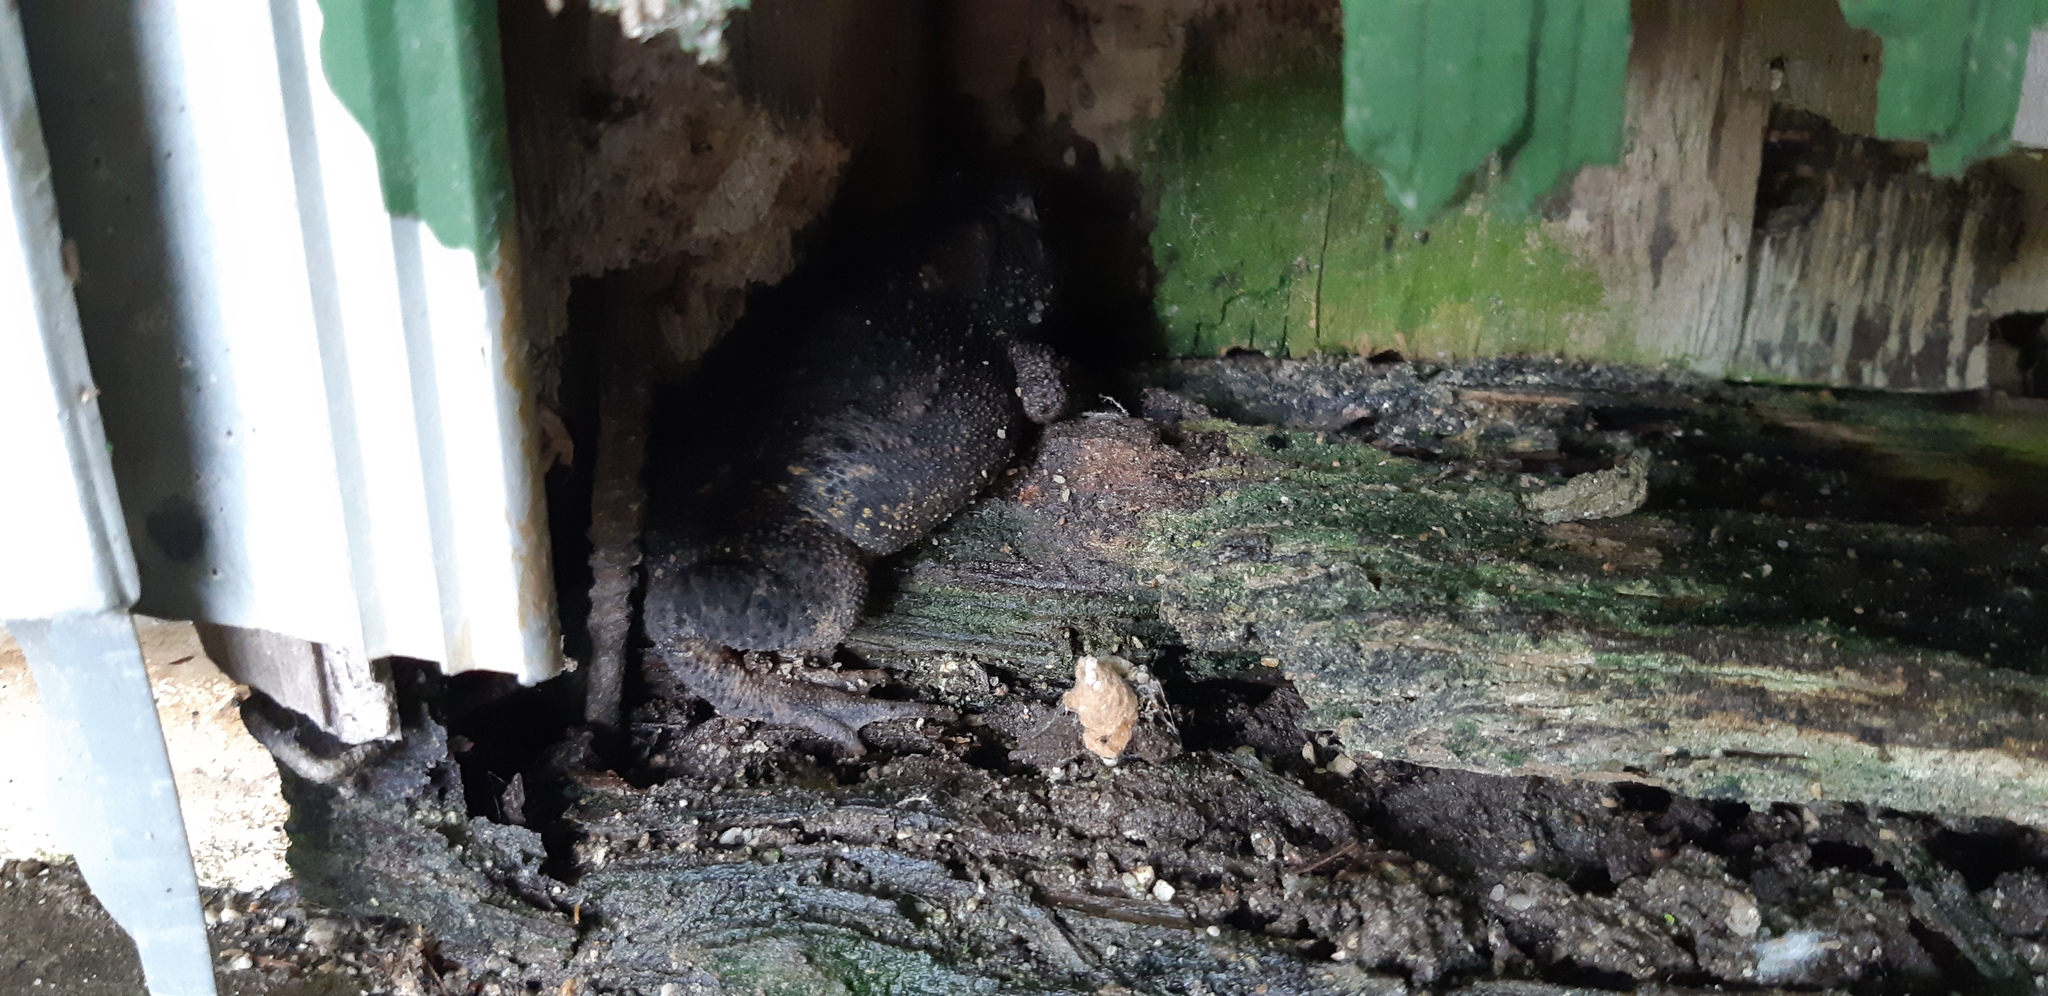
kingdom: Animalia
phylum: Chordata
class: Amphibia
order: Anura
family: Bufonidae
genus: Anaxyrus
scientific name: Anaxyrus americanus
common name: American toad
